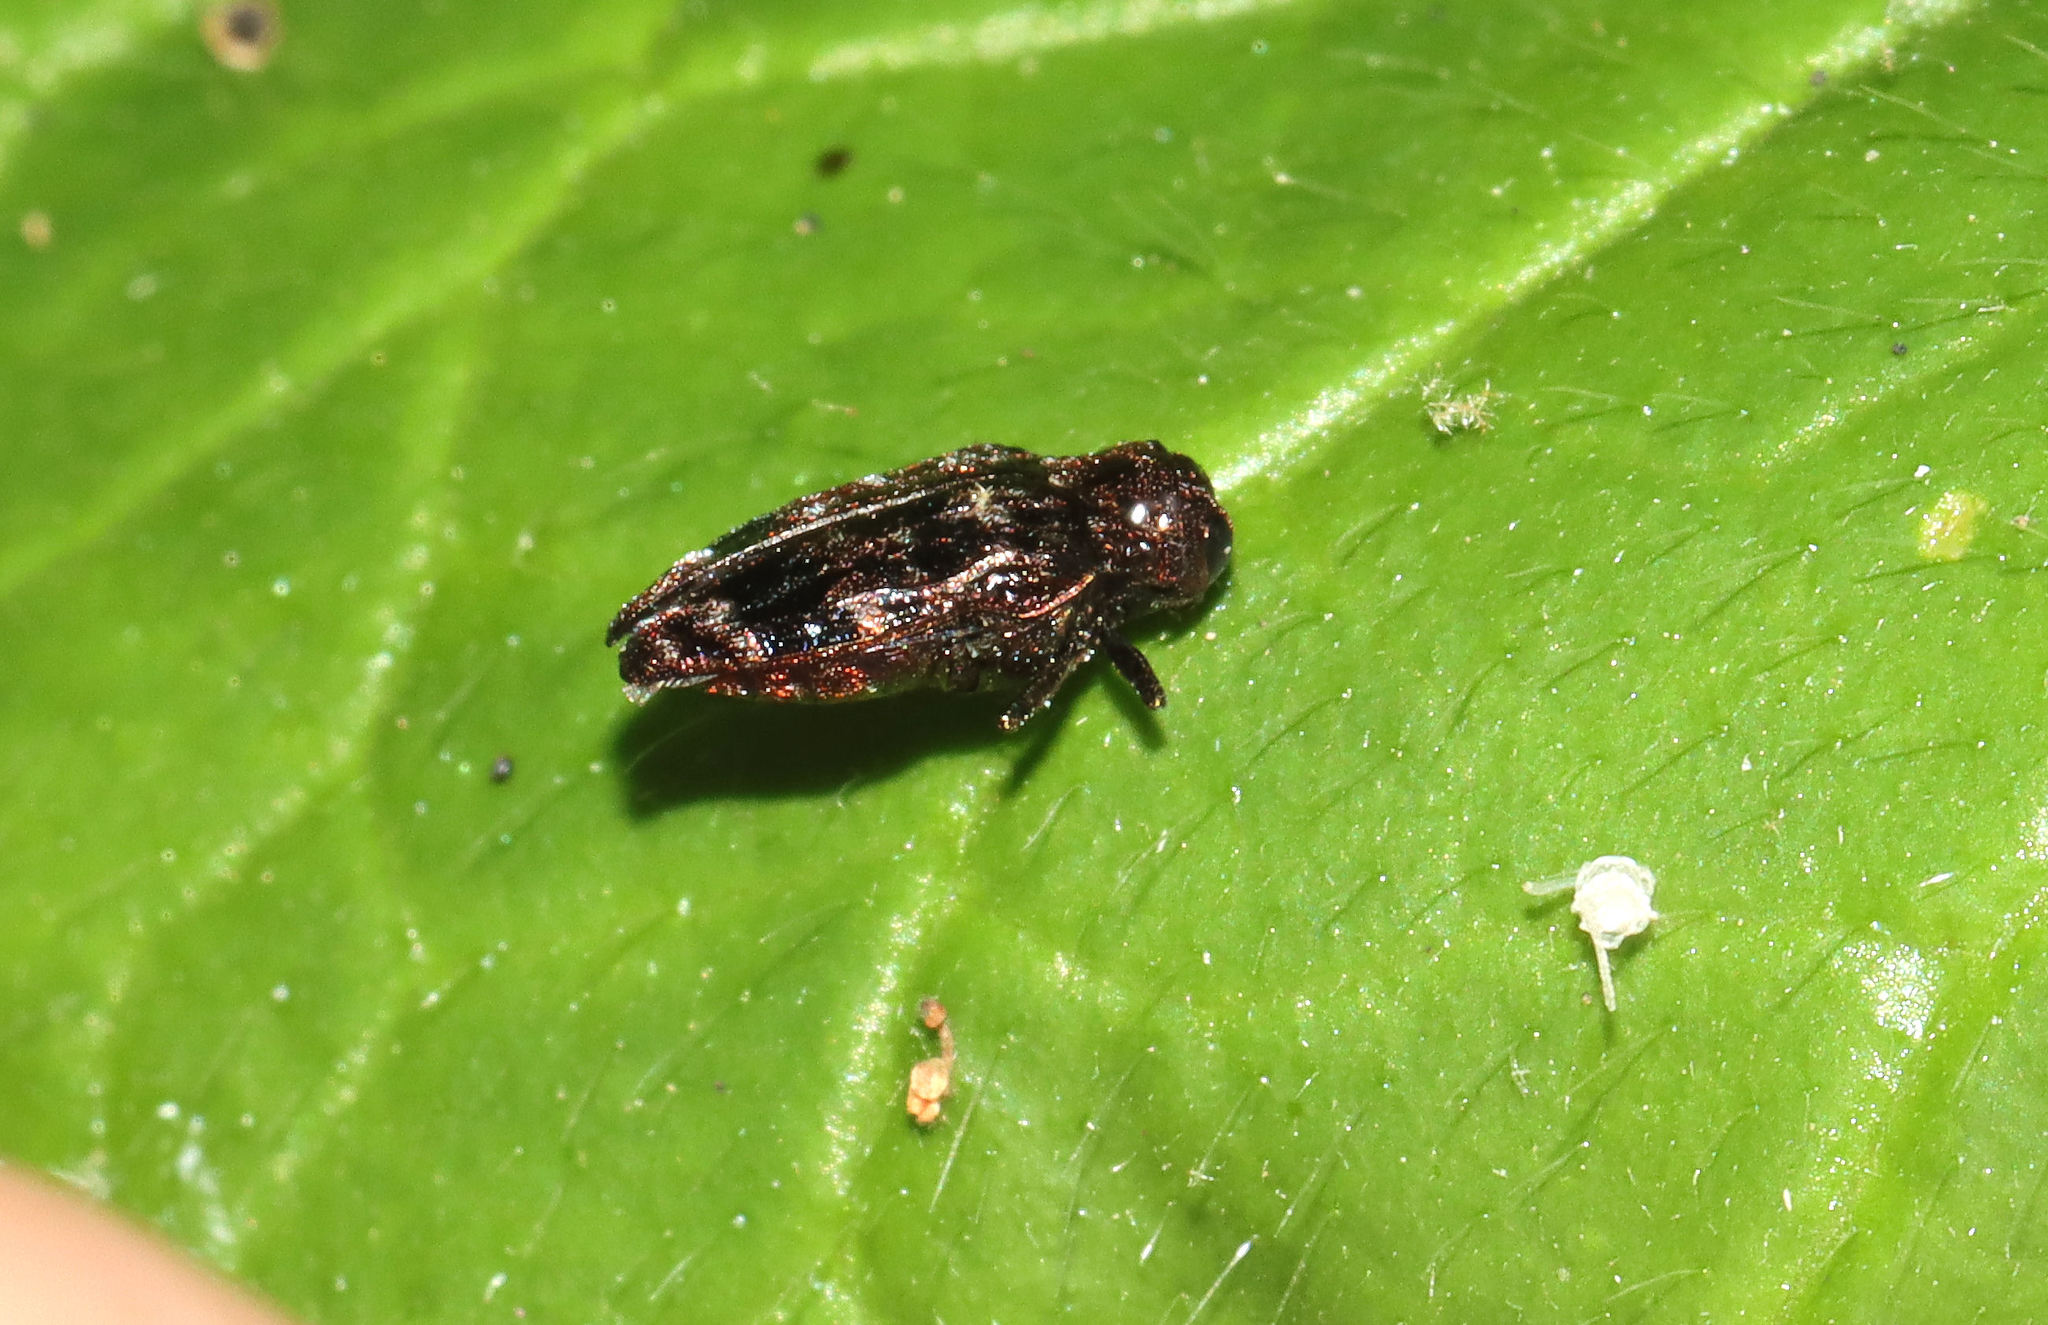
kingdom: Animalia
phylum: Arthropoda
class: Insecta
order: Coleoptera
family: Buprestidae
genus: Brachys
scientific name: Brachys ovatus
